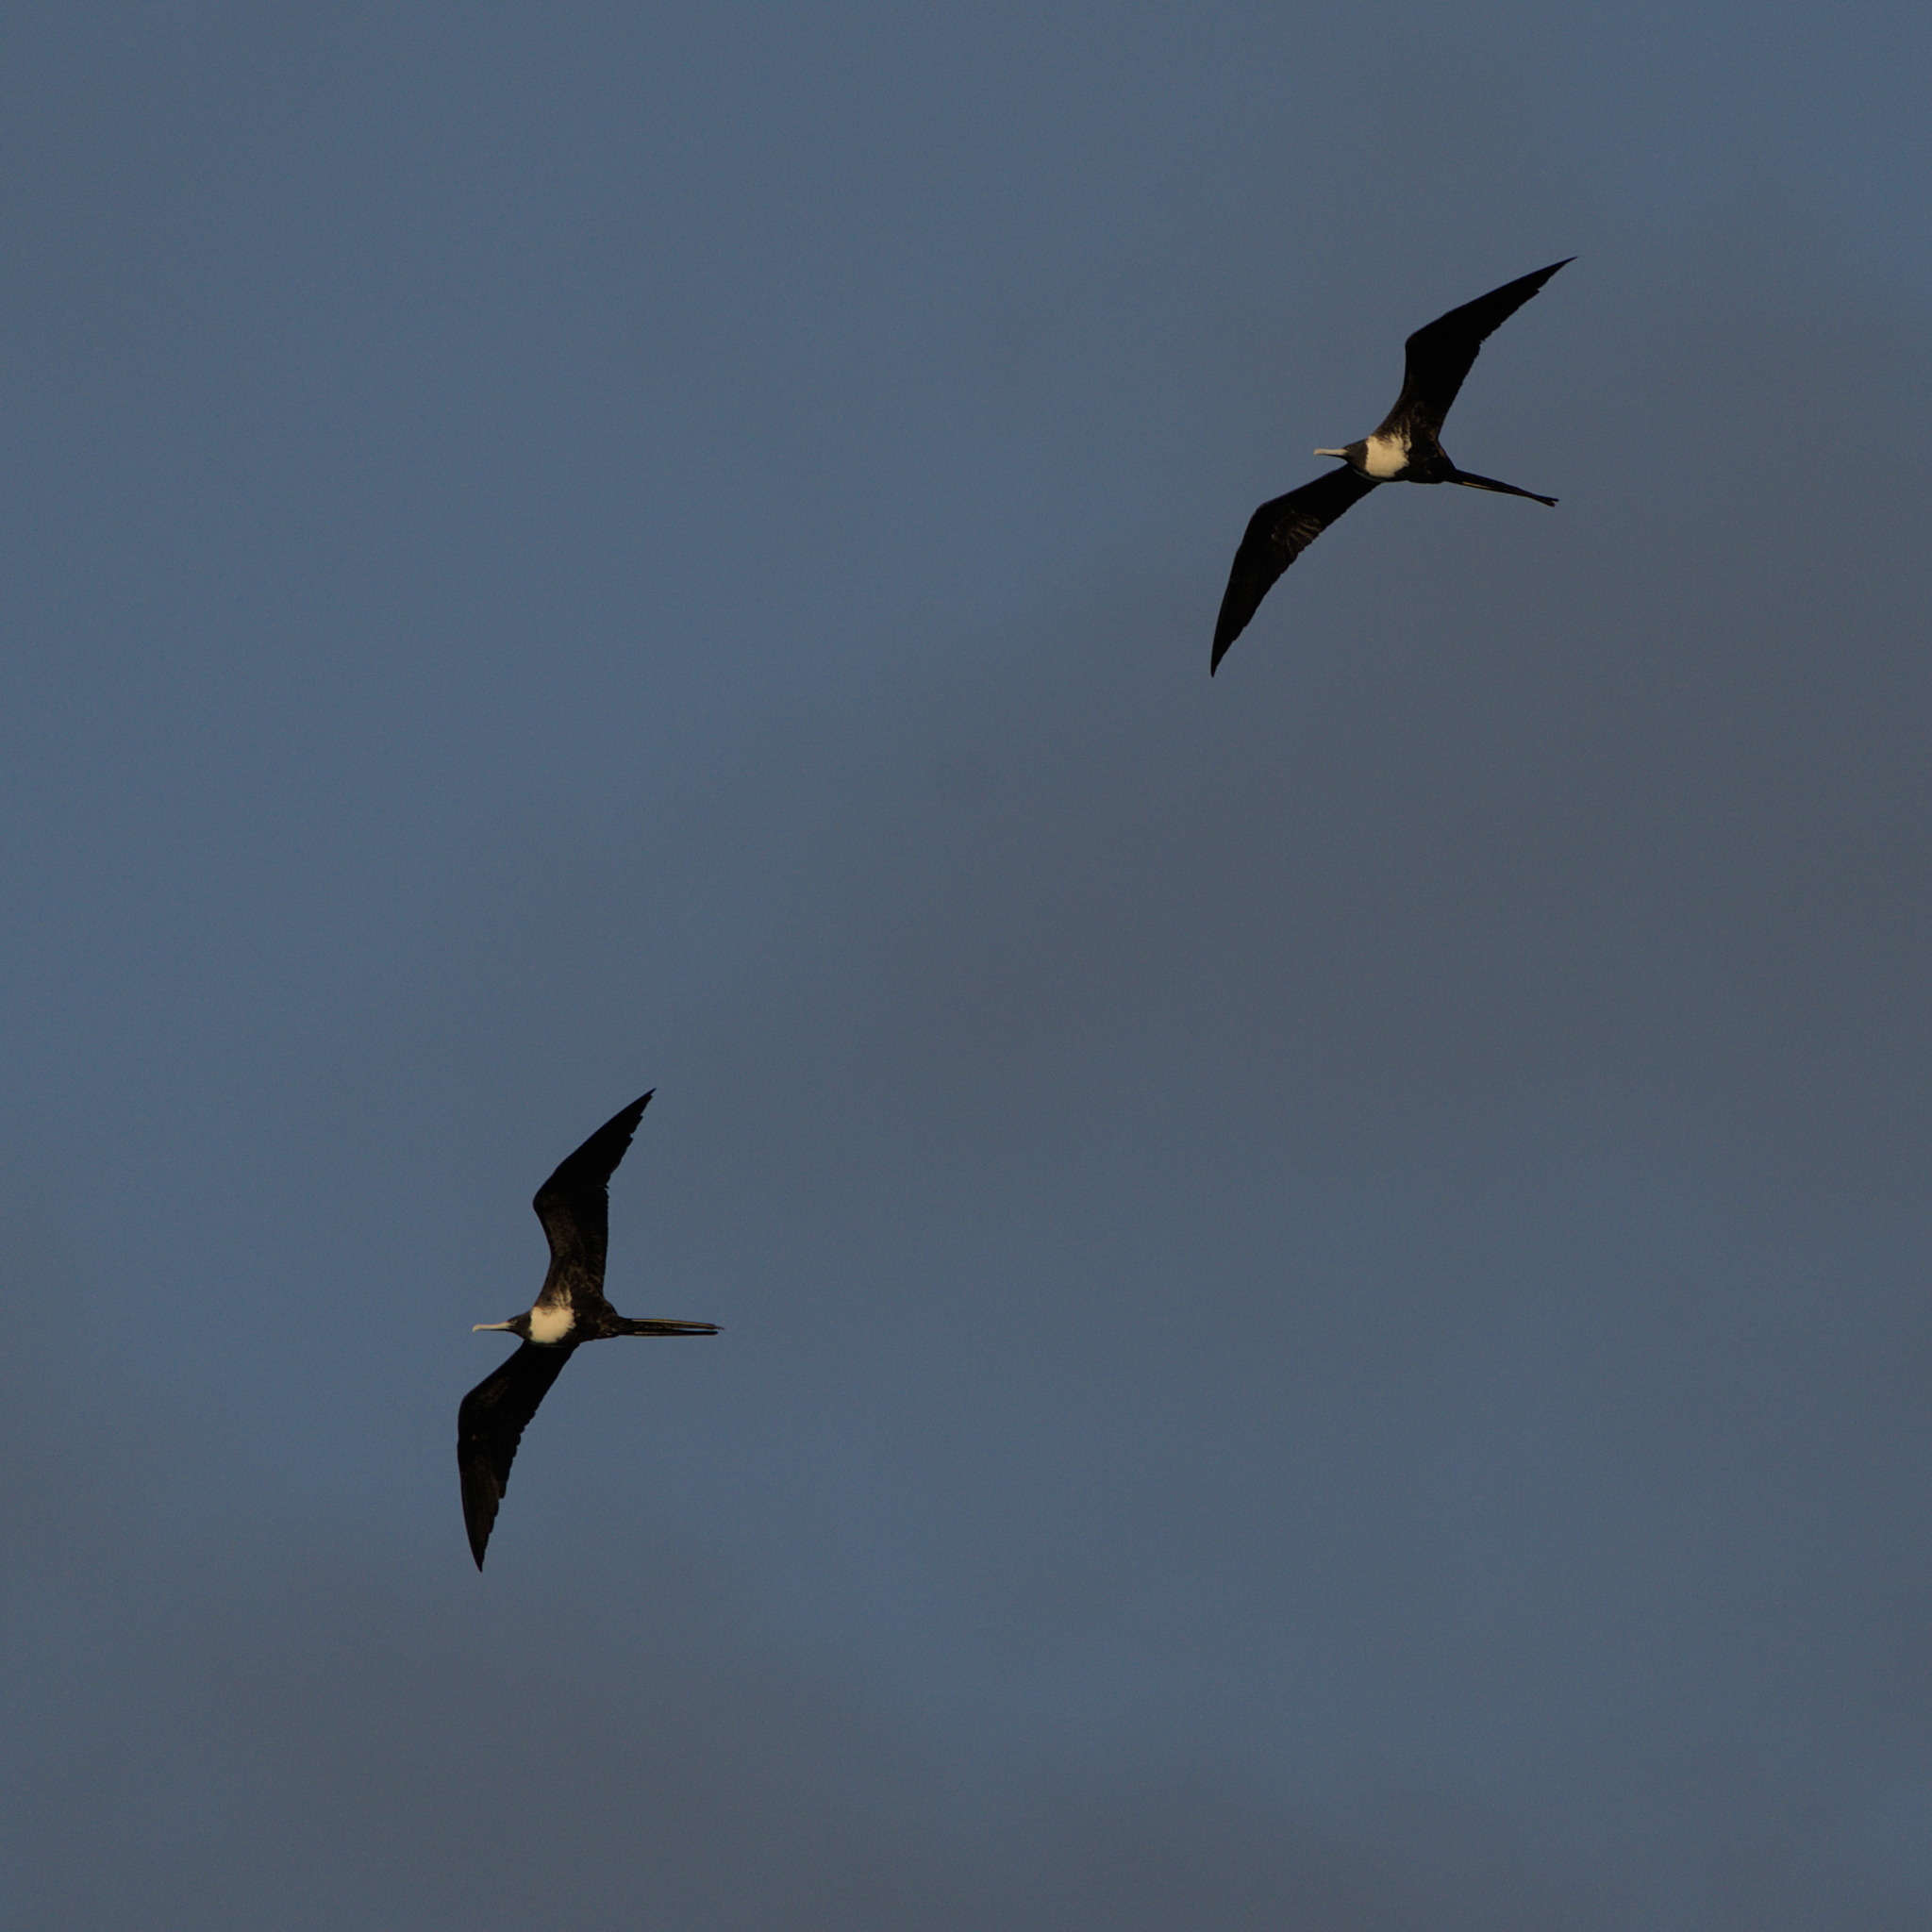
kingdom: Animalia
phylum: Chordata
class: Aves
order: Suliformes
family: Fregatidae
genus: Fregata
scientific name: Fregata magnificens
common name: Magnificent frigatebird
